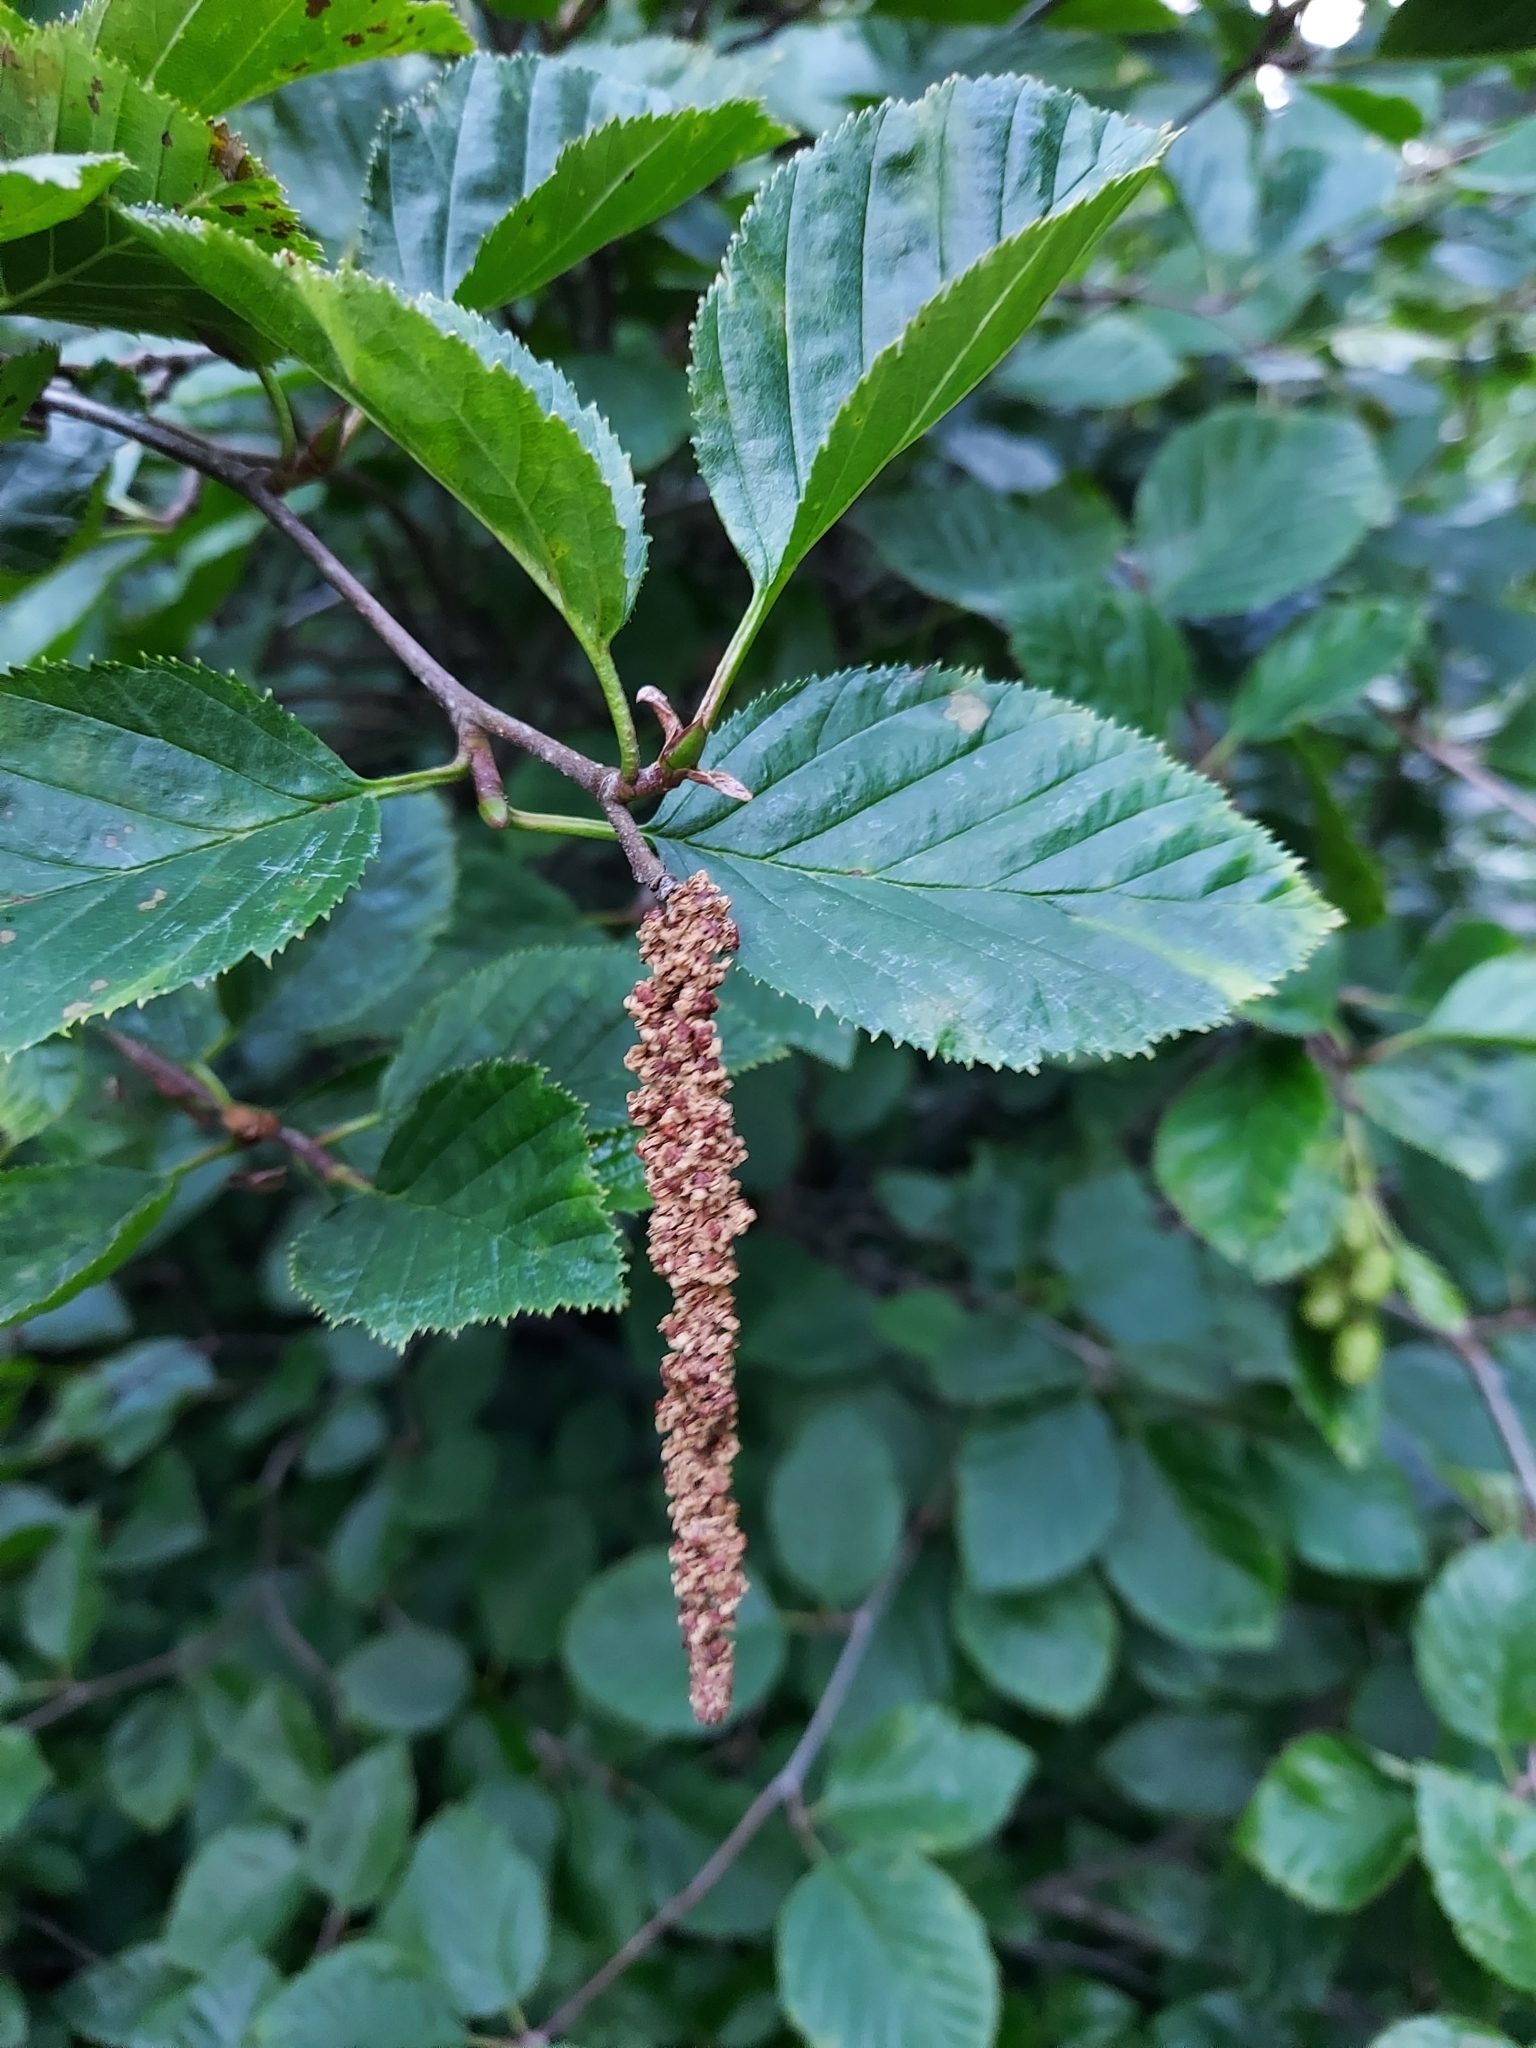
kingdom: Plantae
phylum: Tracheophyta
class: Magnoliopsida
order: Fagales
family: Betulaceae
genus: Alnus
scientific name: Alnus alnobetula
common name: Green alder
